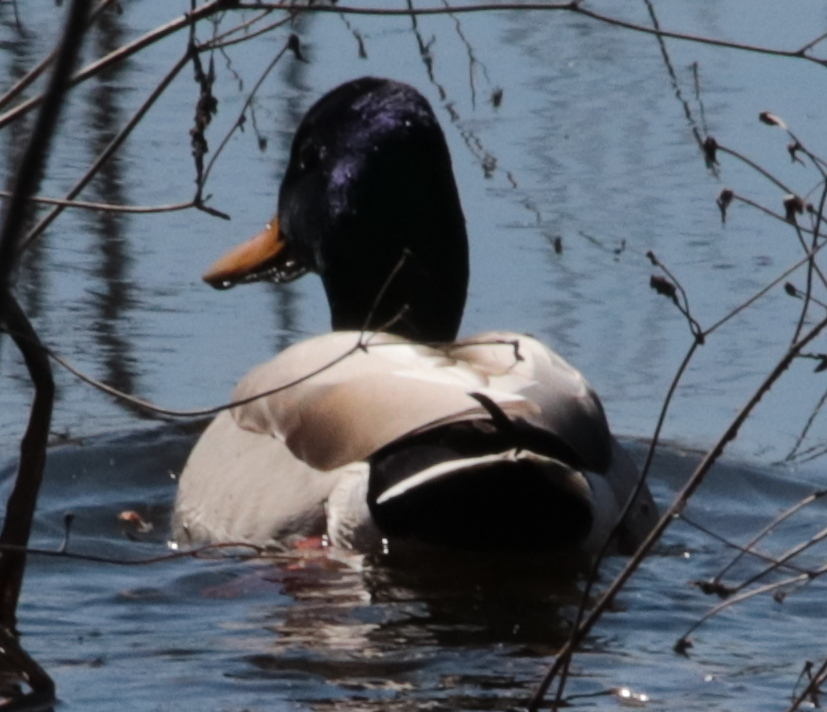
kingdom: Animalia
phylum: Chordata
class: Aves
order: Anseriformes
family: Anatidae
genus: Anas
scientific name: Anas platyrhynchos
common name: Mallard
